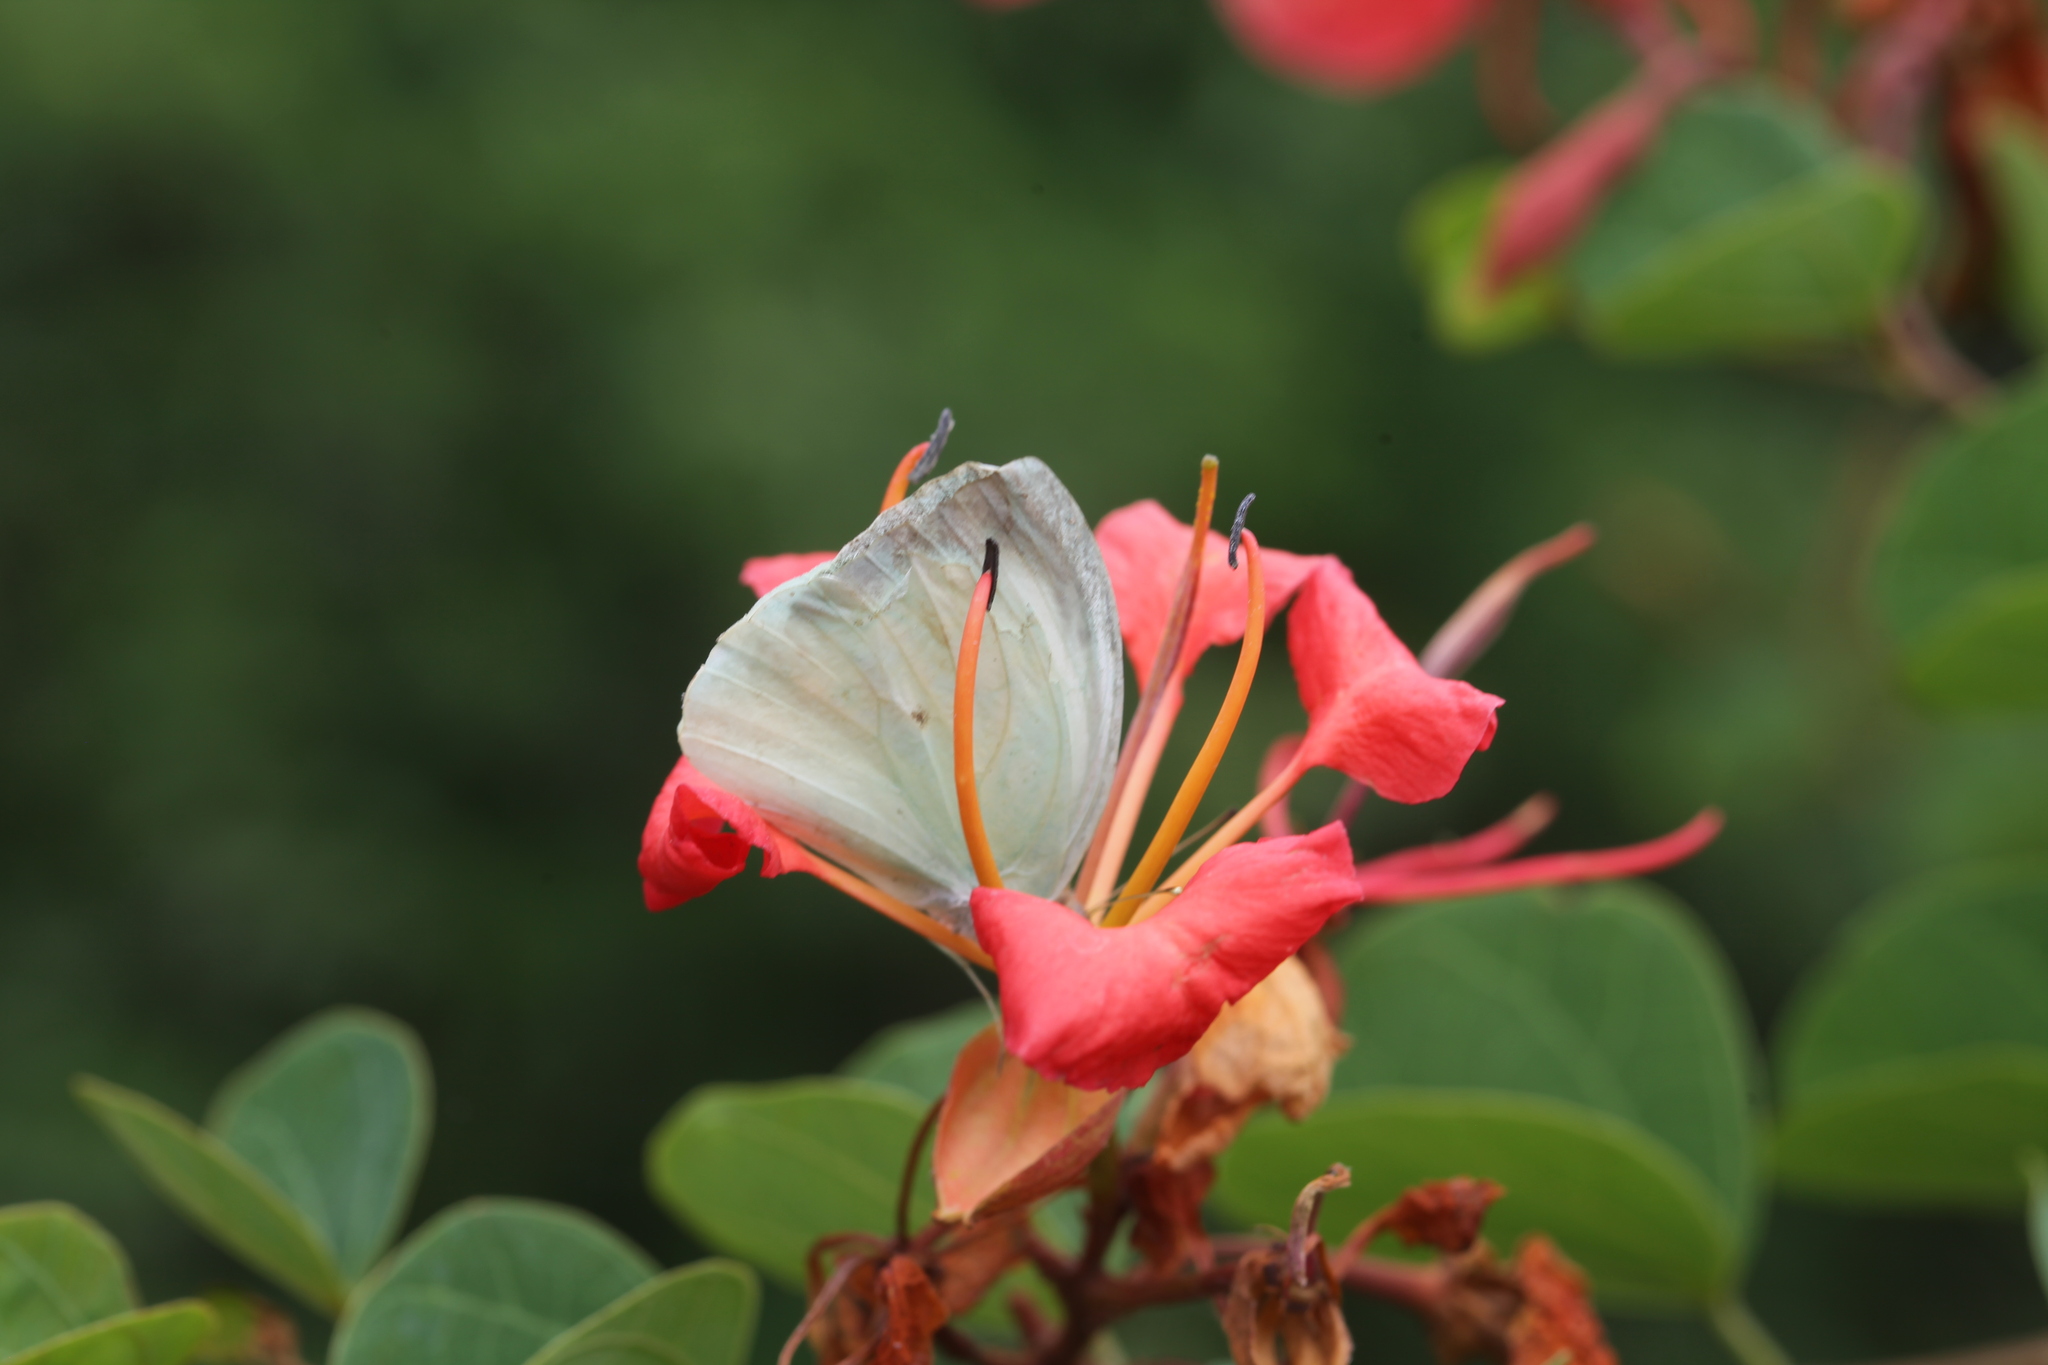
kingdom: Animalia
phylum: Arthropoda
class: Insecta
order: Lepidoptera
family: Pieridae
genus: Nepheronia
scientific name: Nepheronia buquetii
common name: Plain vagrant
